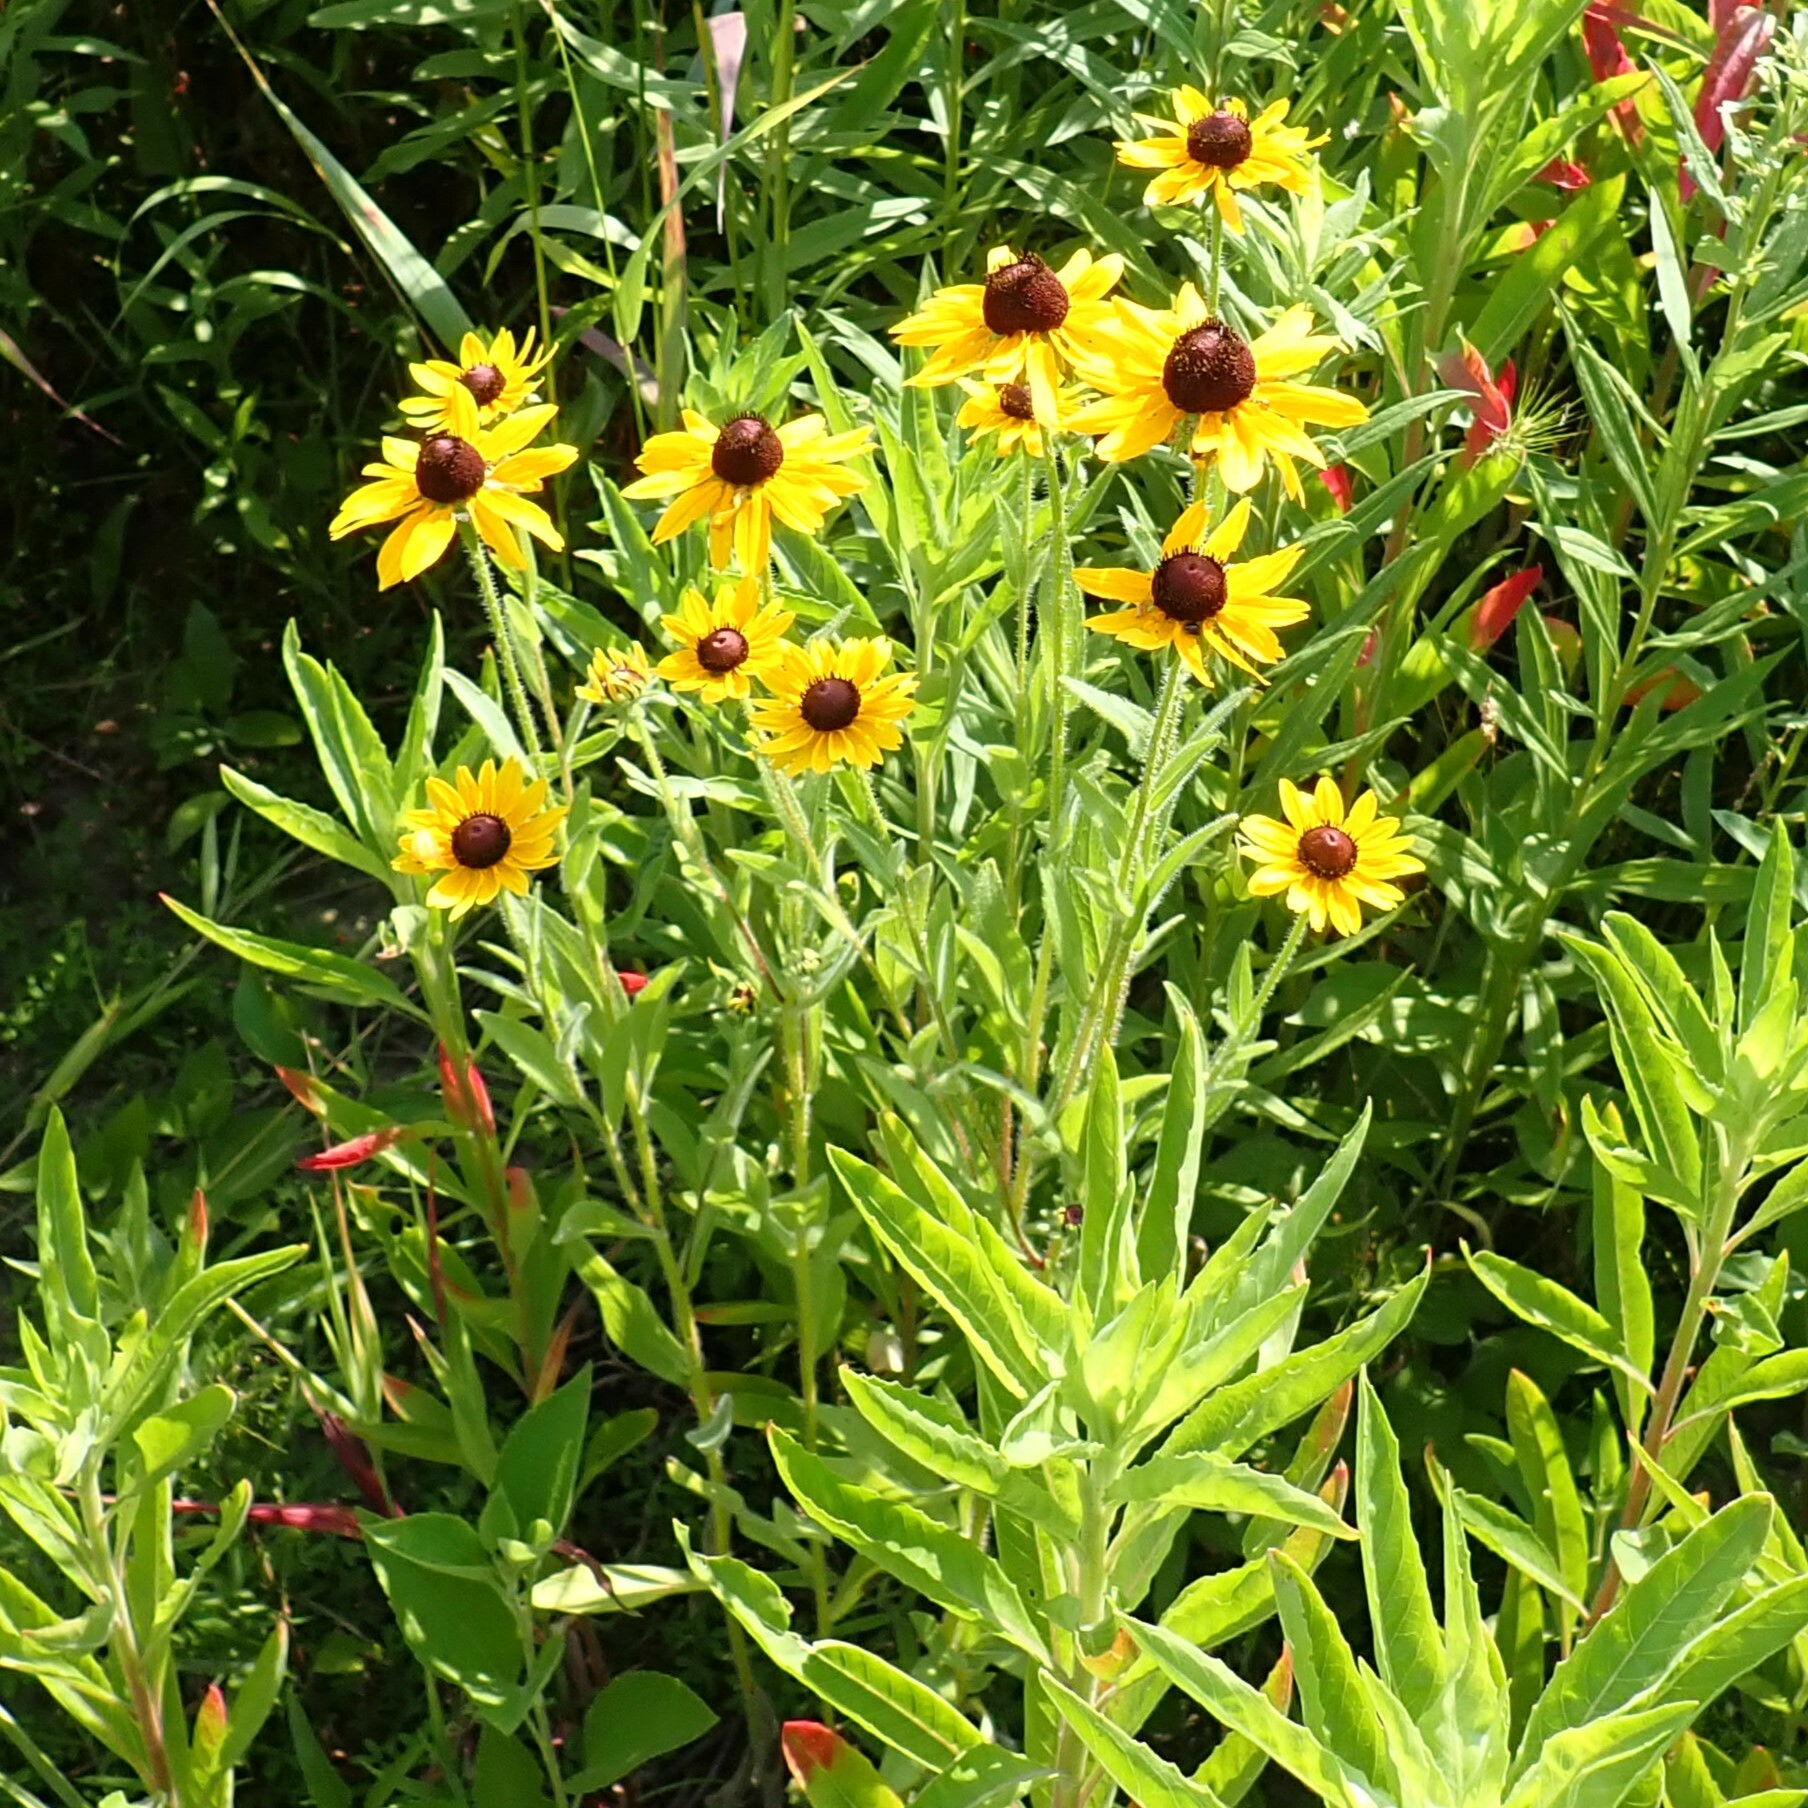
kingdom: Plantae
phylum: Tracheophyta
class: Magnoliopsida
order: Asterales
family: Asteraceae
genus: Rudbeckia
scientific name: Rudbeckia hirta
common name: Black-eyed-susan
